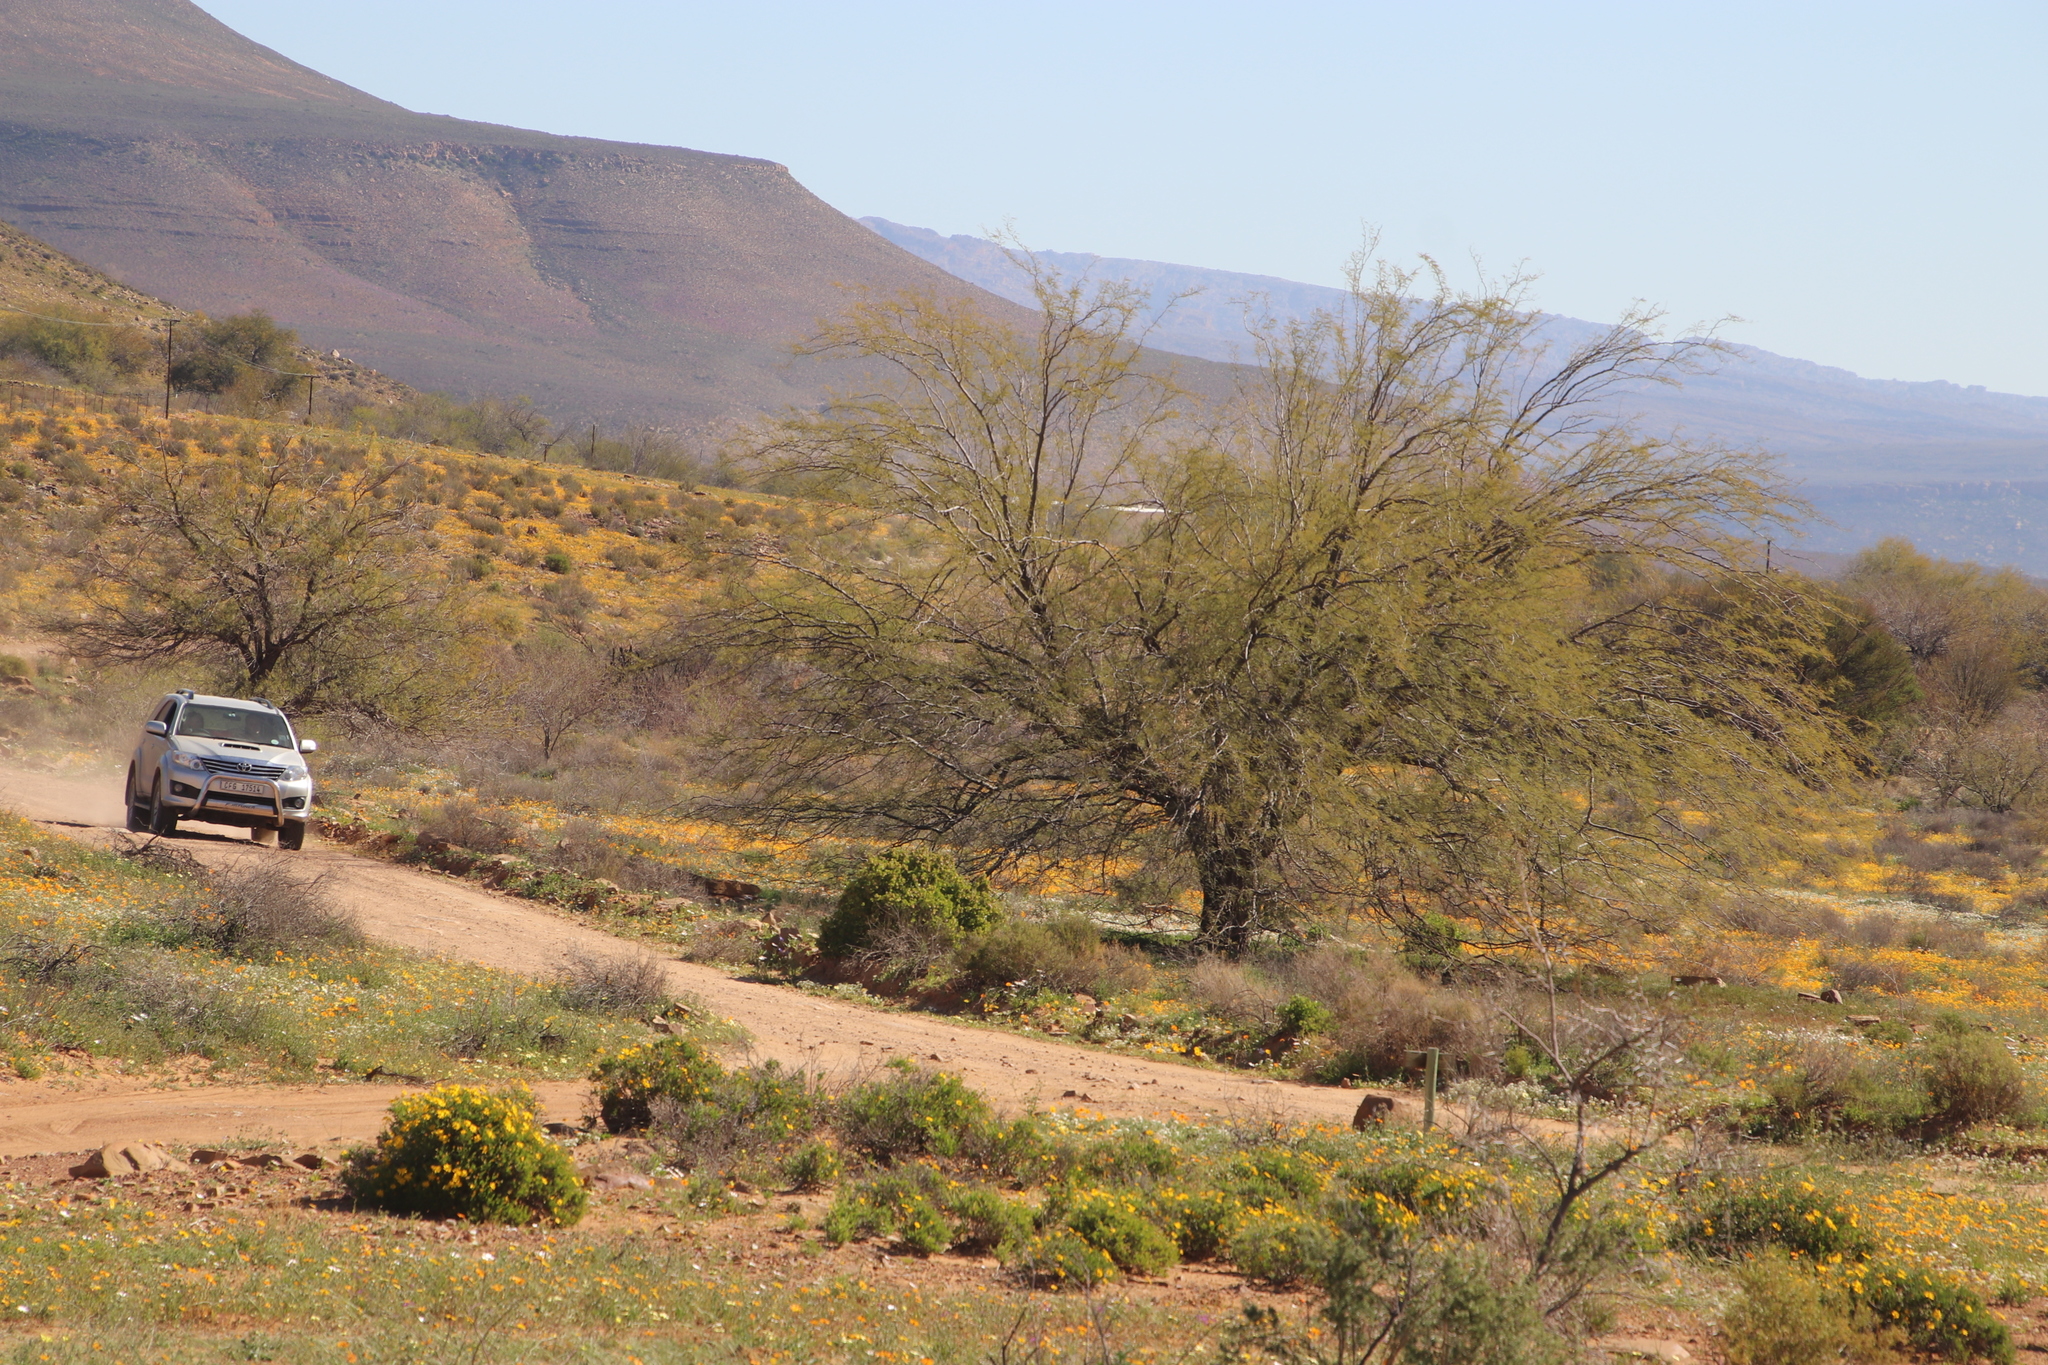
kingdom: Plantae
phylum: Tracheophyta
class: Magnoliopsida
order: Fabales
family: Fabaceae
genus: Prosopis
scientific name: Prosopis pubescens
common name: Screw-bean
